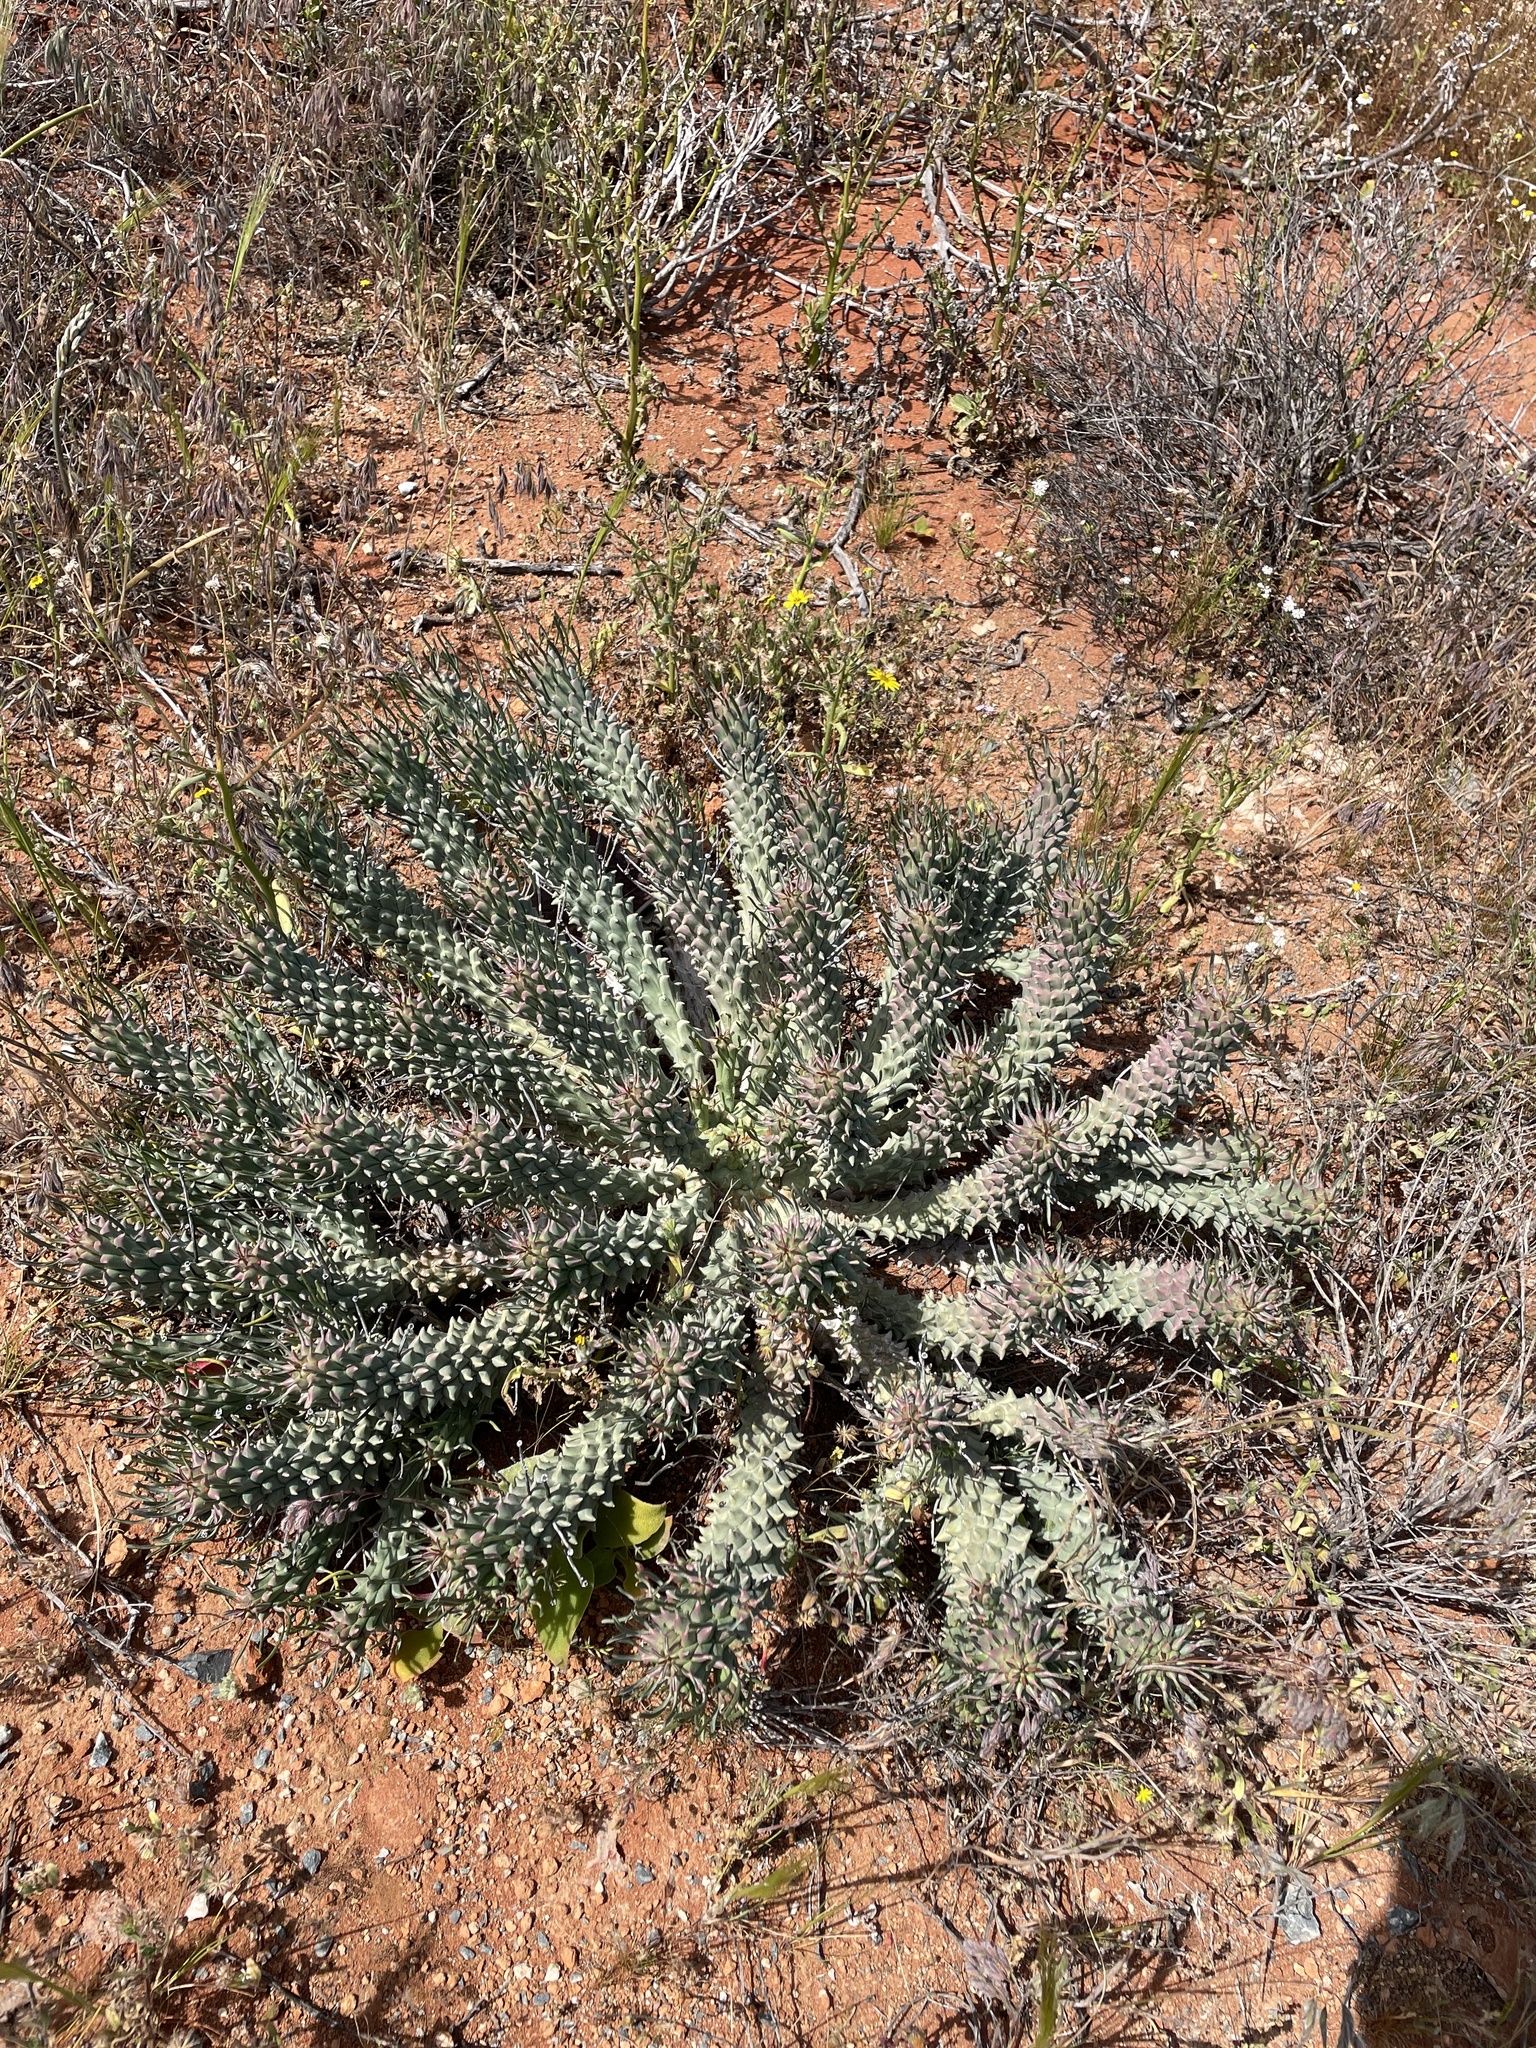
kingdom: Plantae
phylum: Tracheophyta
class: Magnoliopsida
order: Malpighiales
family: Euphorbiaceae
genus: Euphorbia
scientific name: Euphorbia caput-medusae
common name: Medusa's-head
